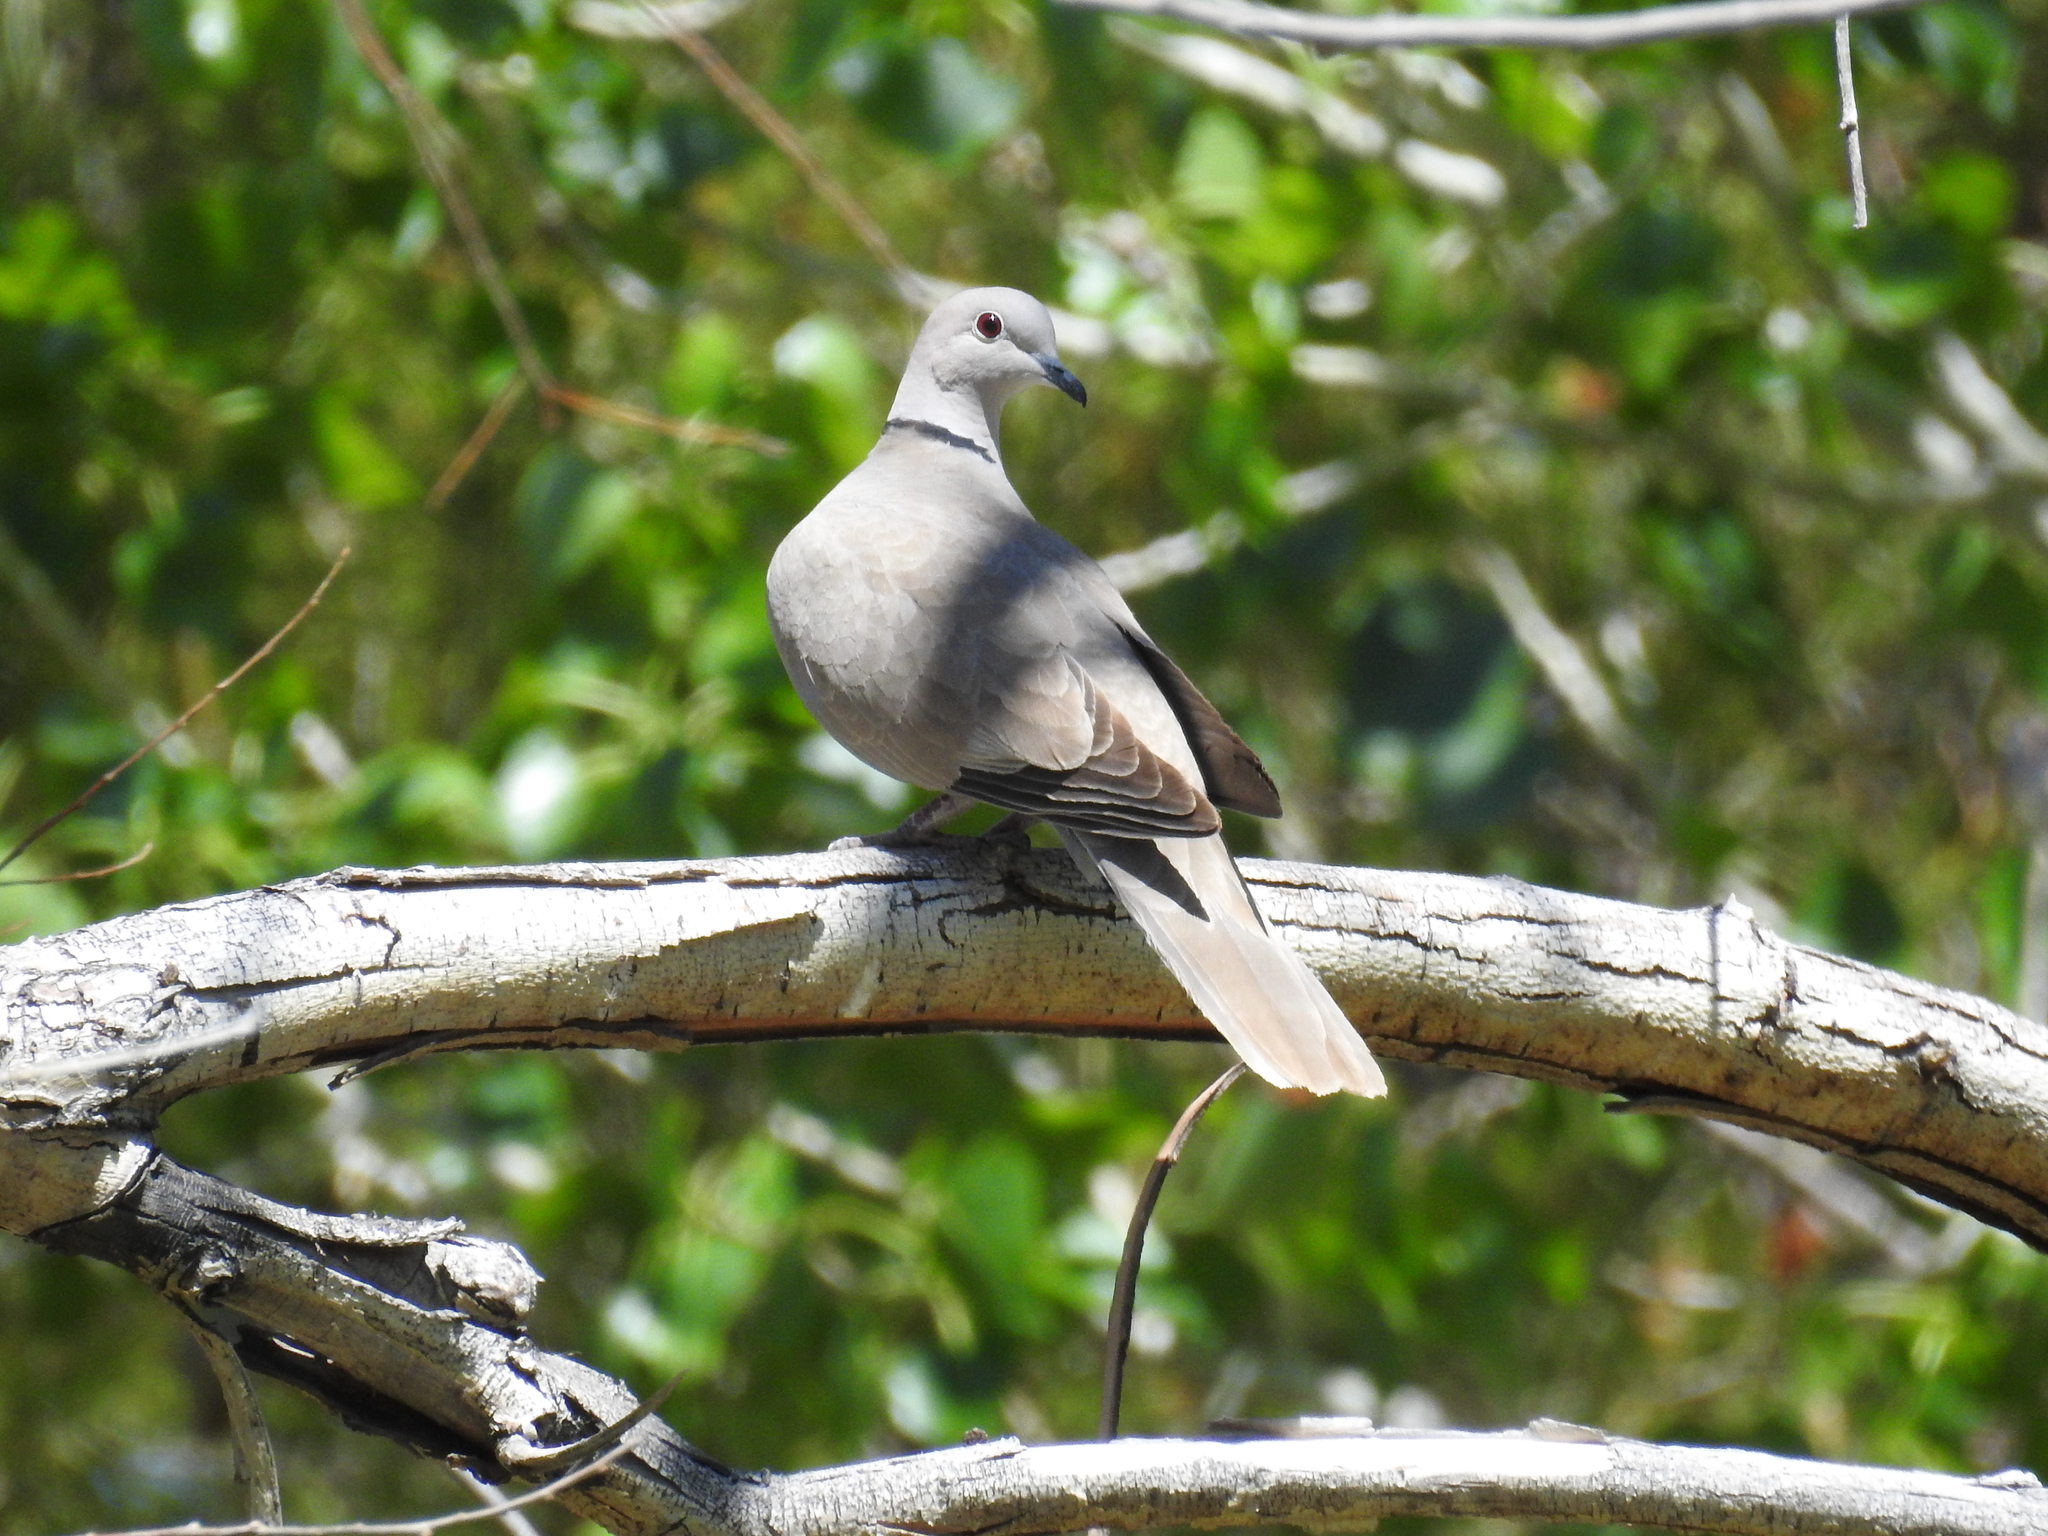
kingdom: Animalia
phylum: Chordata
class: Aves
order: Columbiformes
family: Columbidae
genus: Streptopelia
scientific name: Streptopelia decaocto
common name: Eurasian collared dove
